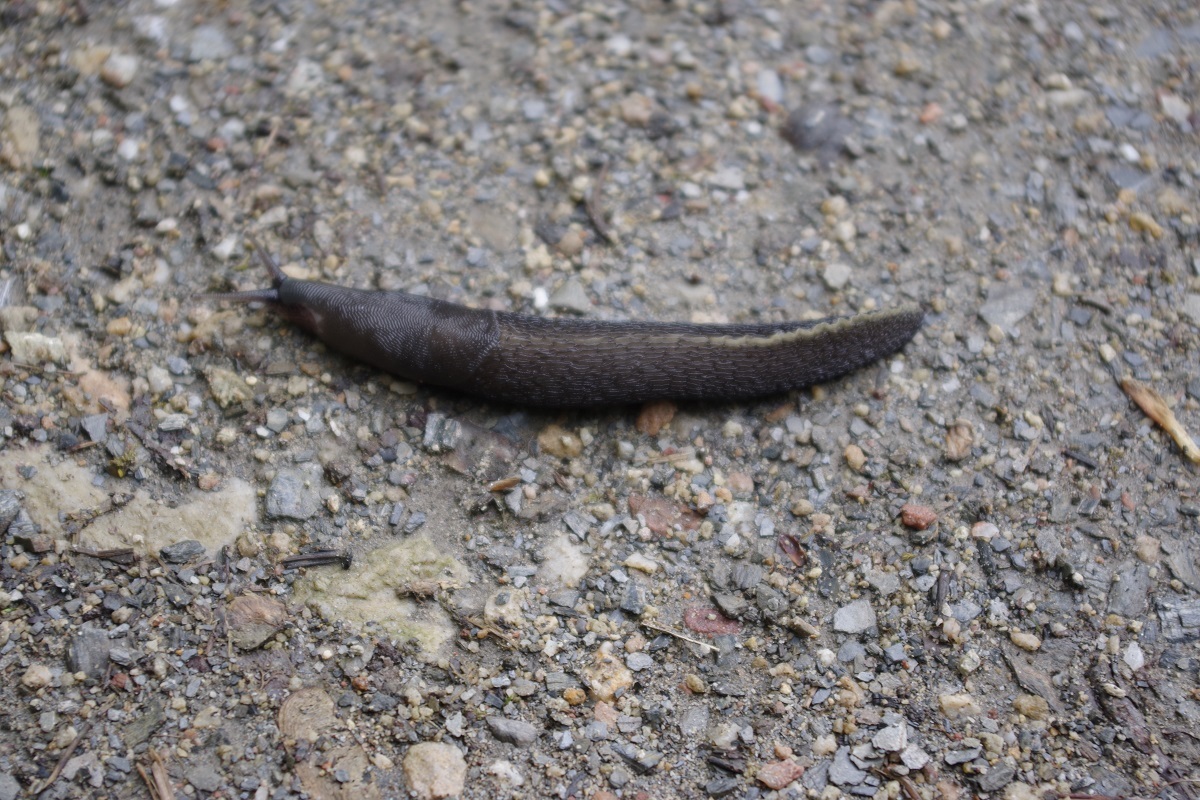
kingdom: Animalia
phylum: Mollusca
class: Gastropoda
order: Stylommatophora
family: Limacidae
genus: Limax
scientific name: Limax cinereoniger
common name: Ash-black slug
